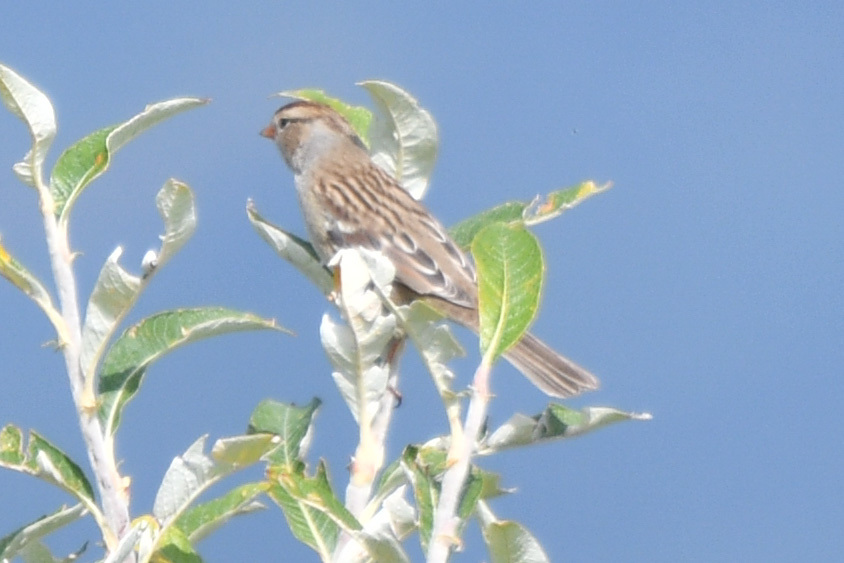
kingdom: Animalia
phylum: Chordata
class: Aves
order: Passeriformes
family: Passerellidae
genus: Zonotrichia
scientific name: Zonotrichia leucophrys
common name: White-crowned sparrow
